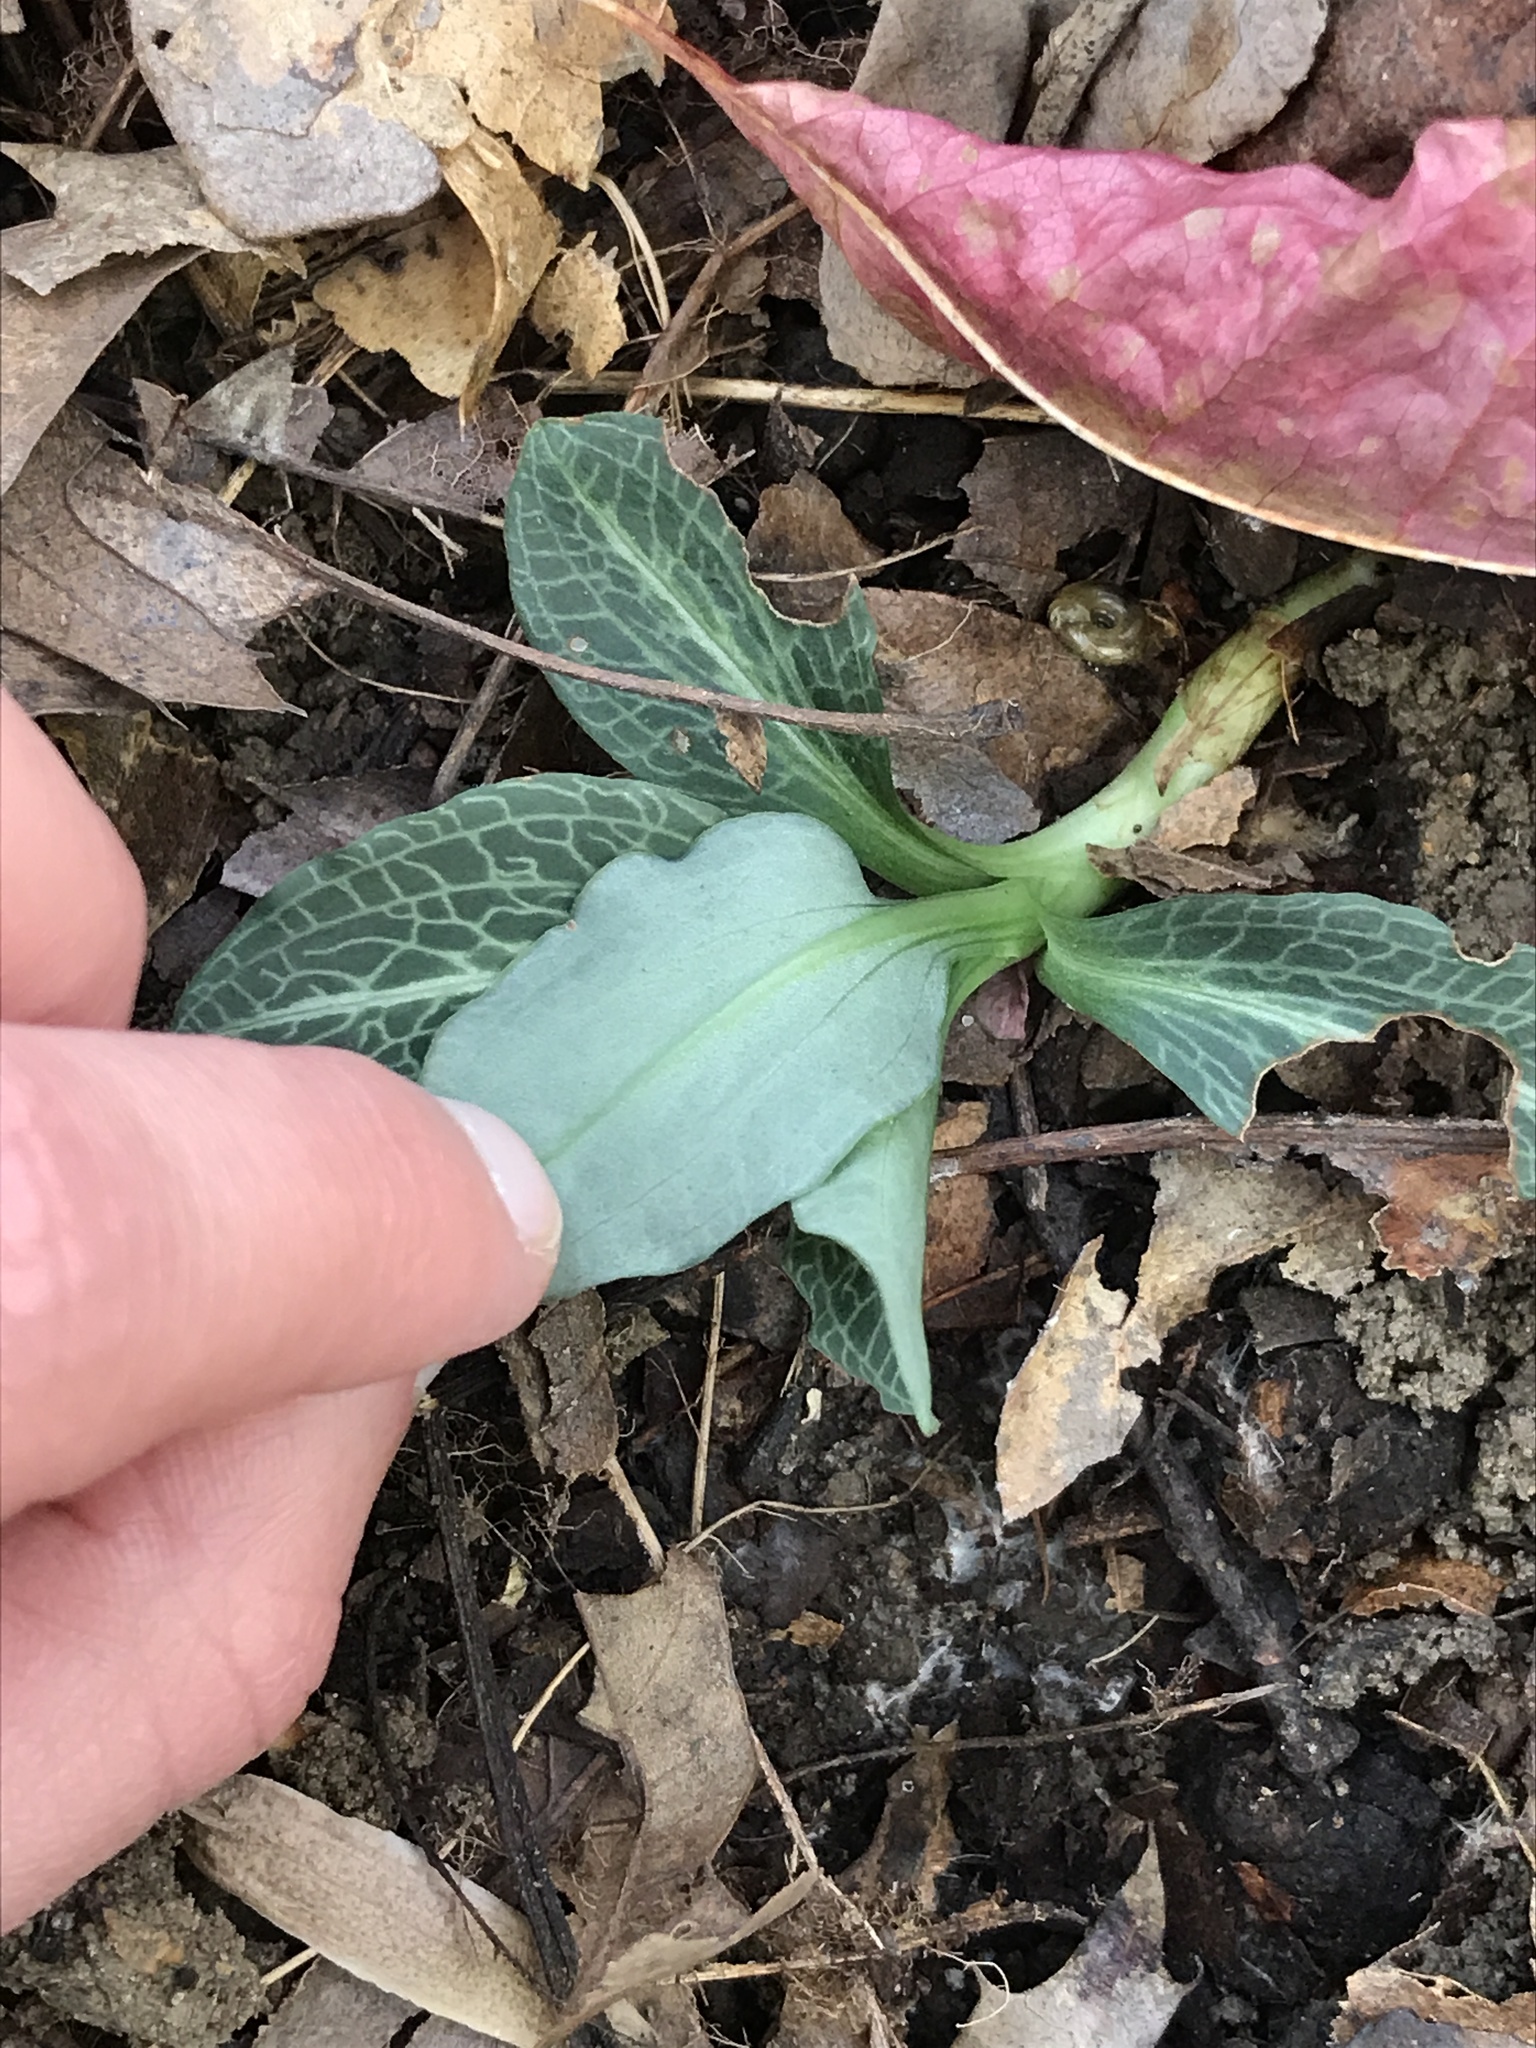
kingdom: Plantae
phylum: Tracheophyta
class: Liliopsida
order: Asparagales
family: Orchidaceae
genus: Goodyera
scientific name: Goodyera pubescens
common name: Downy rattlesnake-plantain
